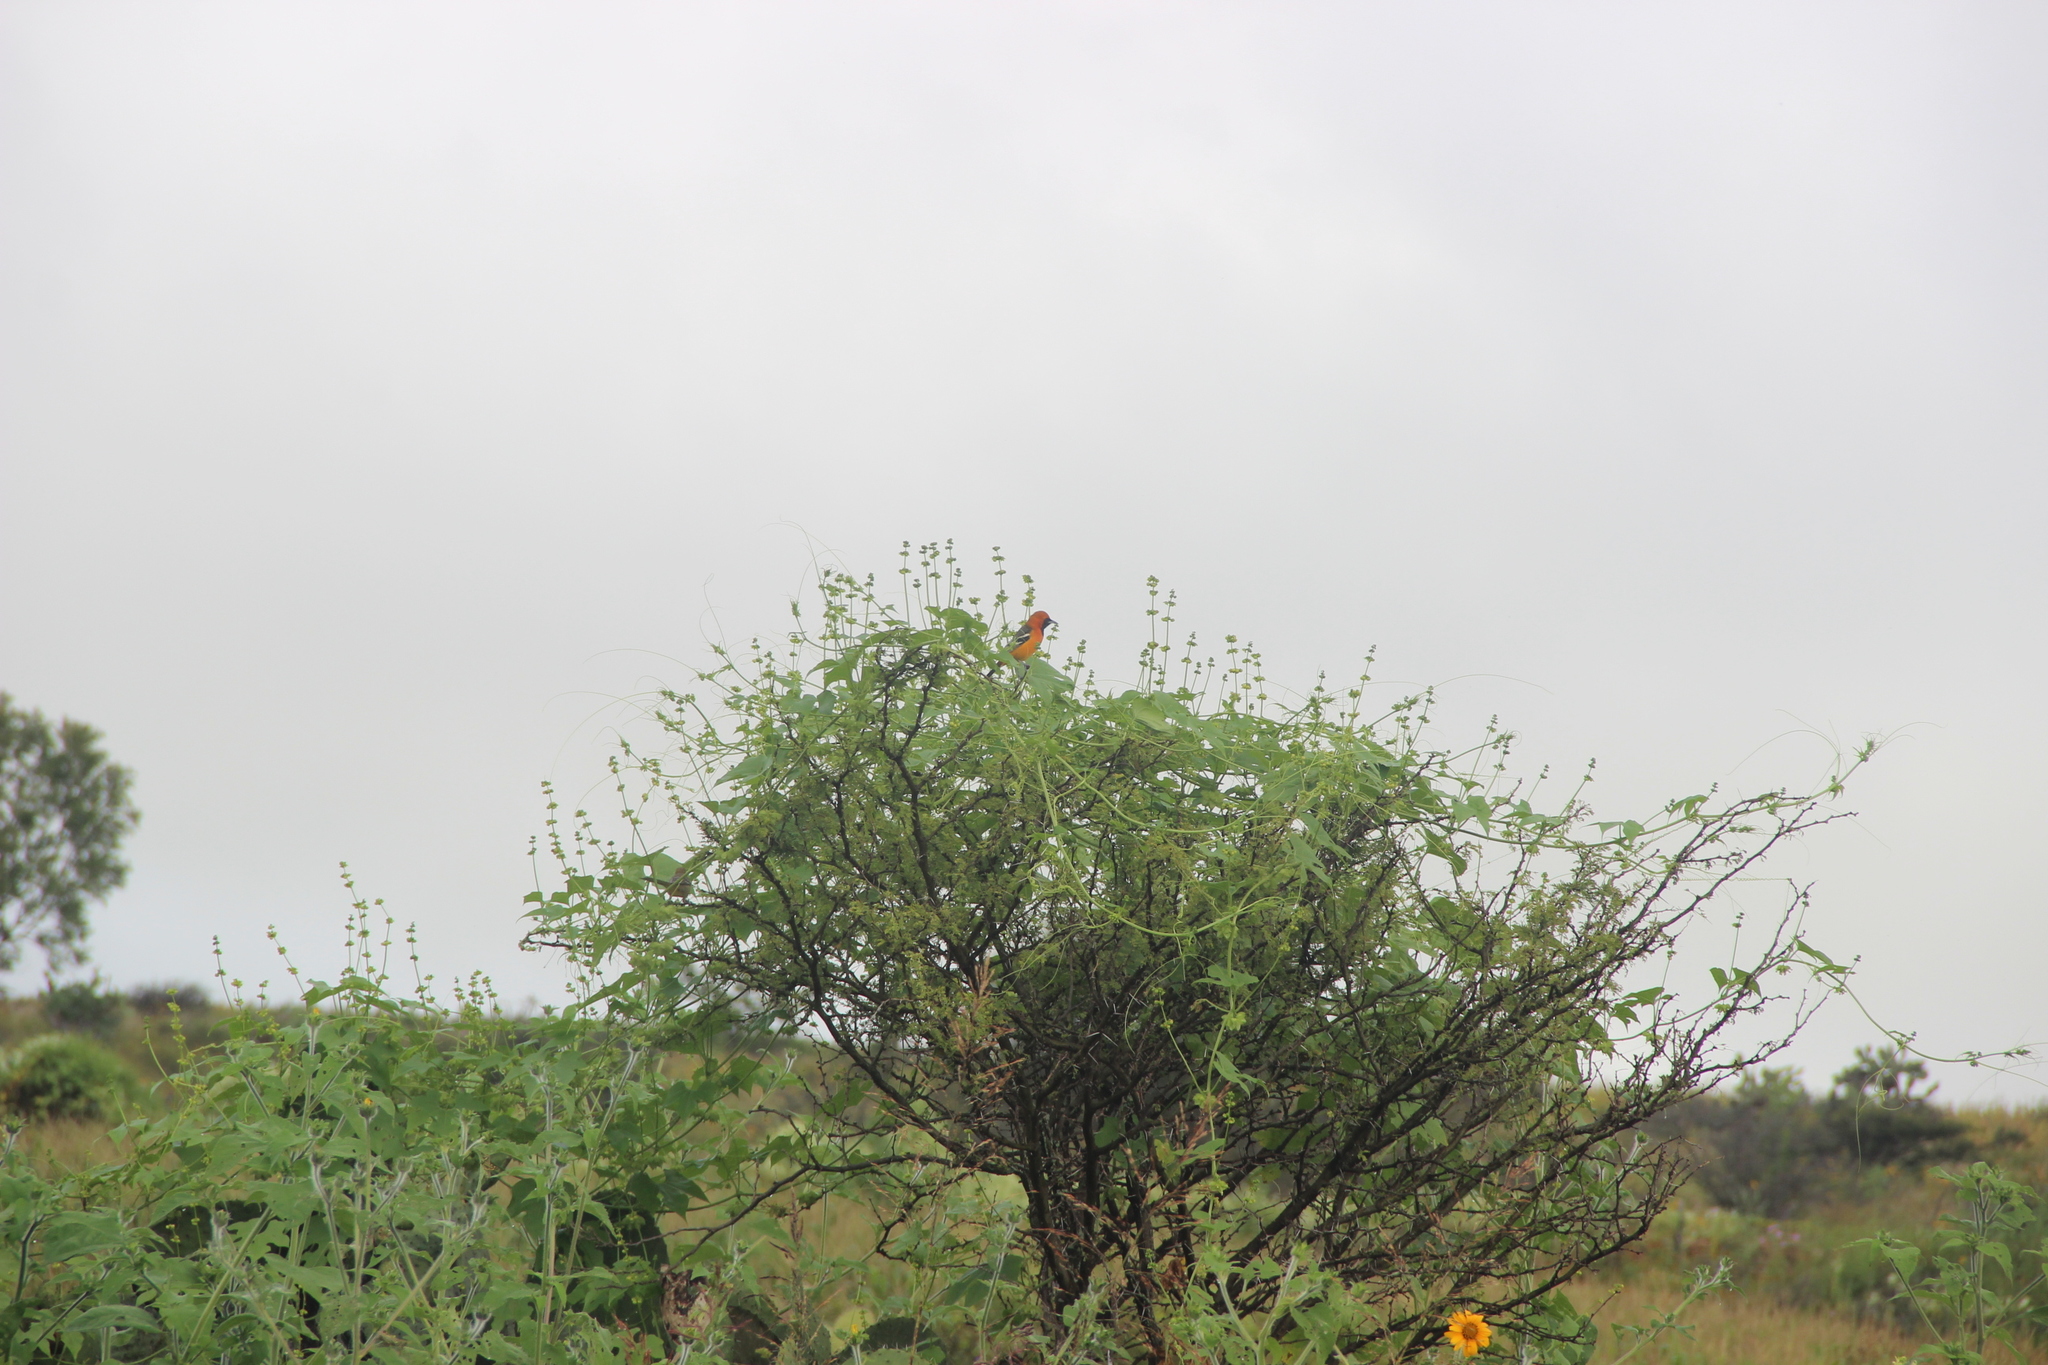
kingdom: Animalia
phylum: Chordata
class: Aves
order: Passeriformes
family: Icteridae
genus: Icterus
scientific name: Icterus cucullatus
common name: Hooded oriole
